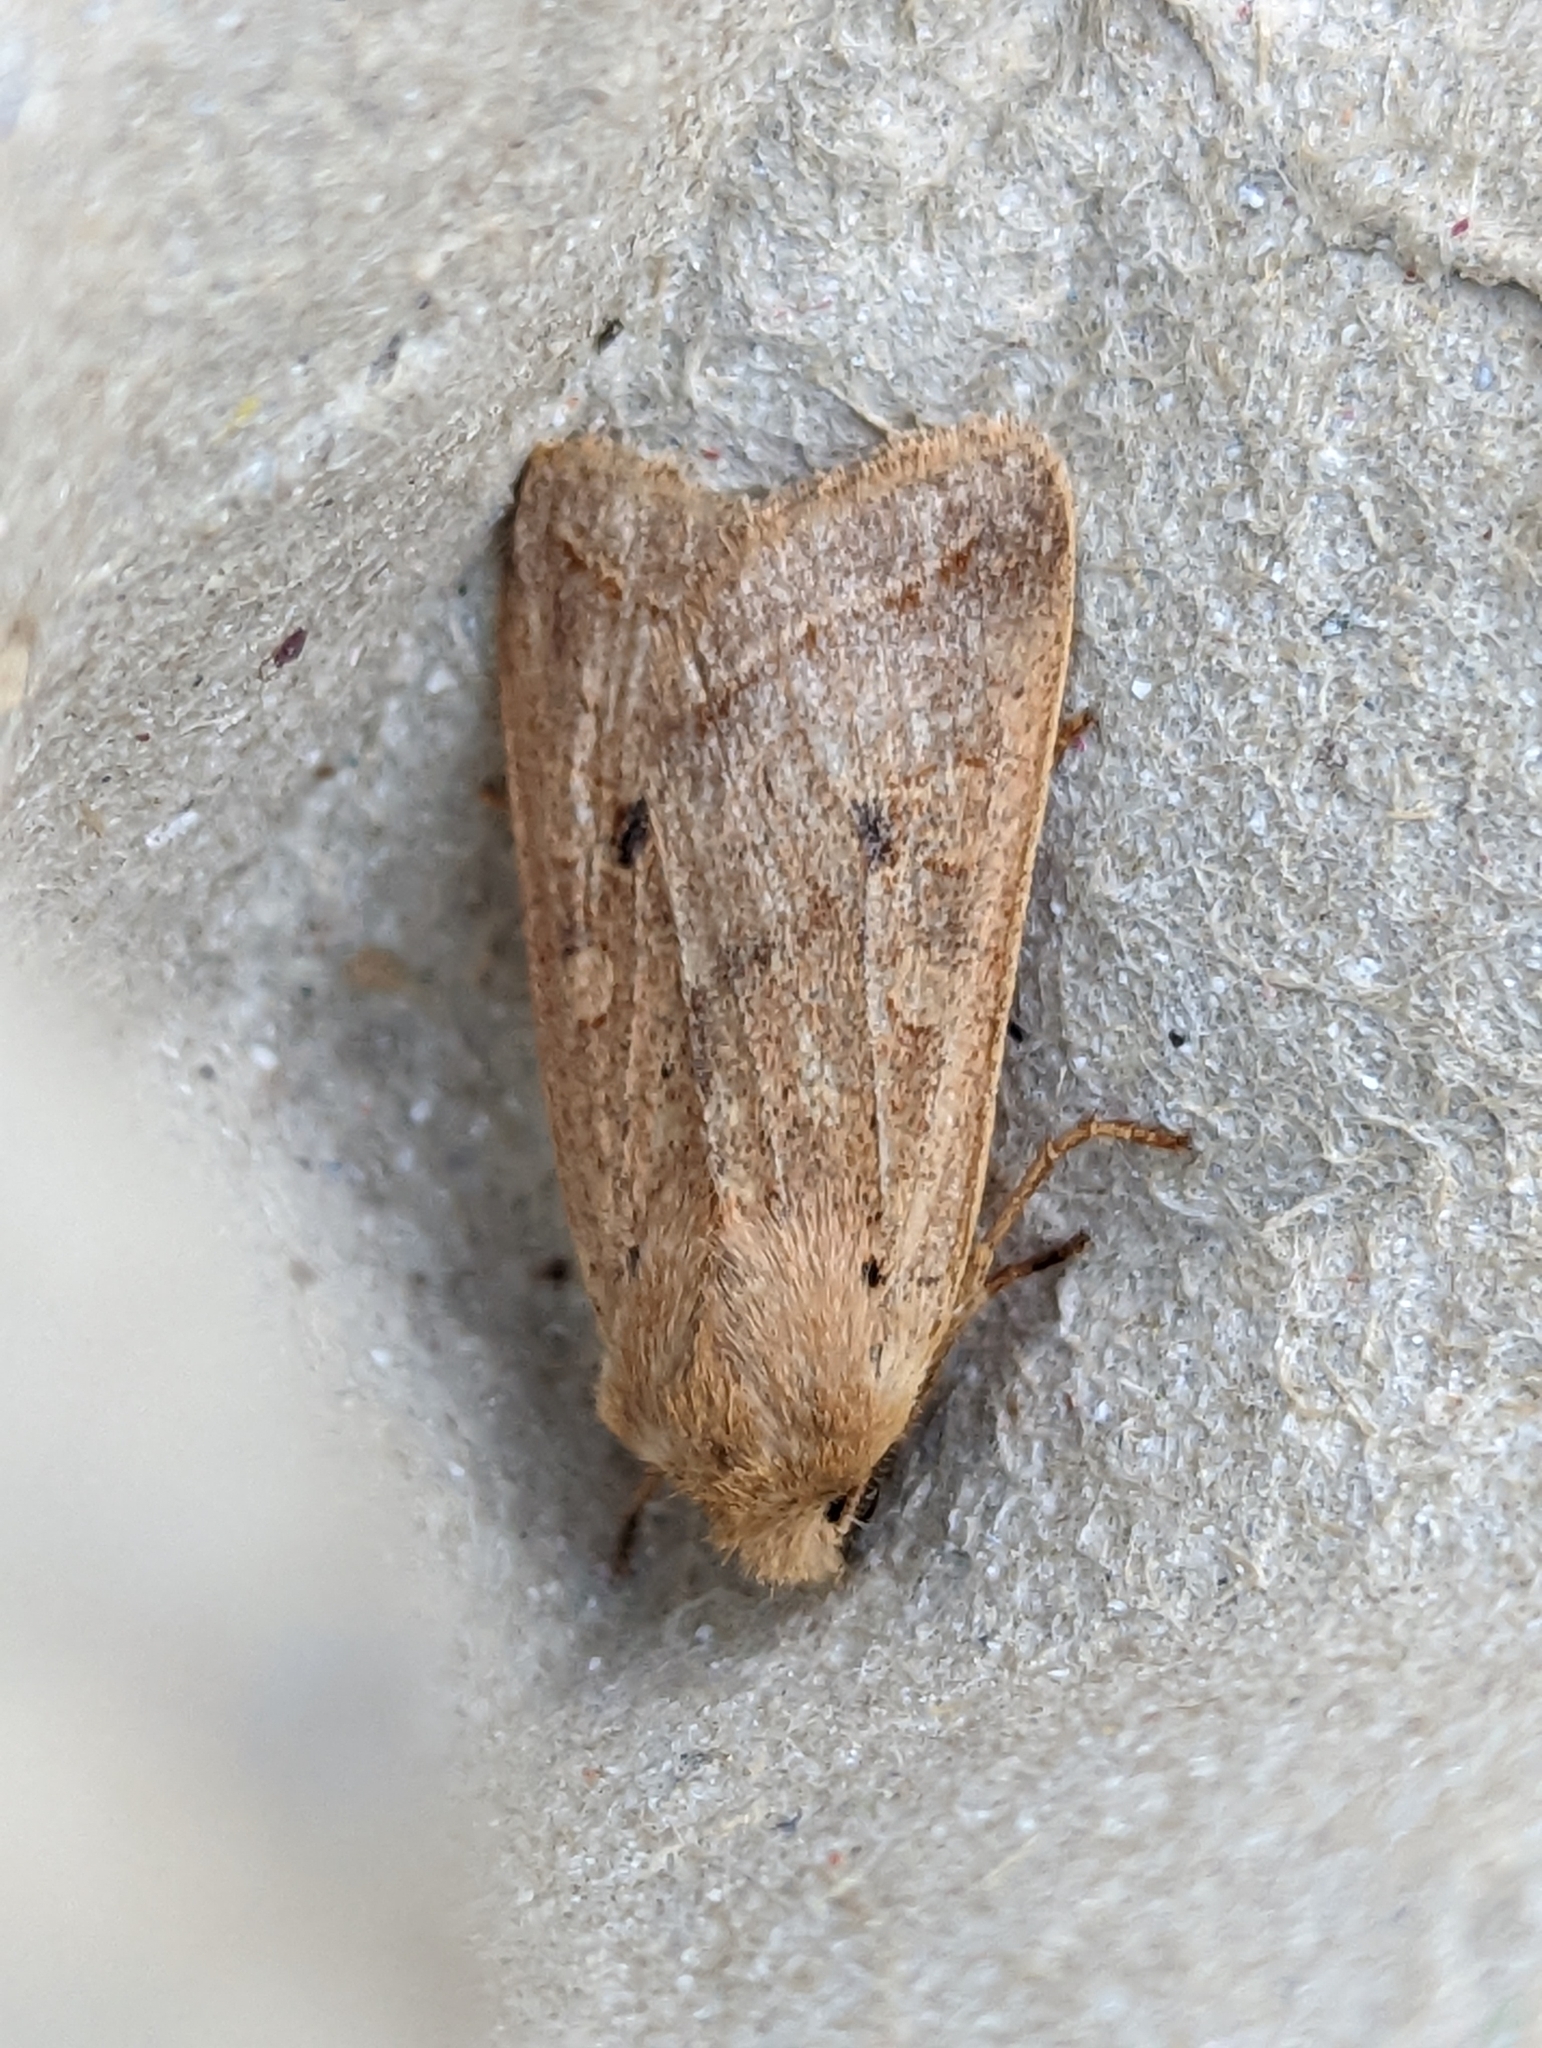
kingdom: Animalia
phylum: Arthropoda
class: Insecta
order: Lepidoptera
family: Noctuidae
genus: Agrochola
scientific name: Agrochola macilenta
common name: Yellow-line quaker
